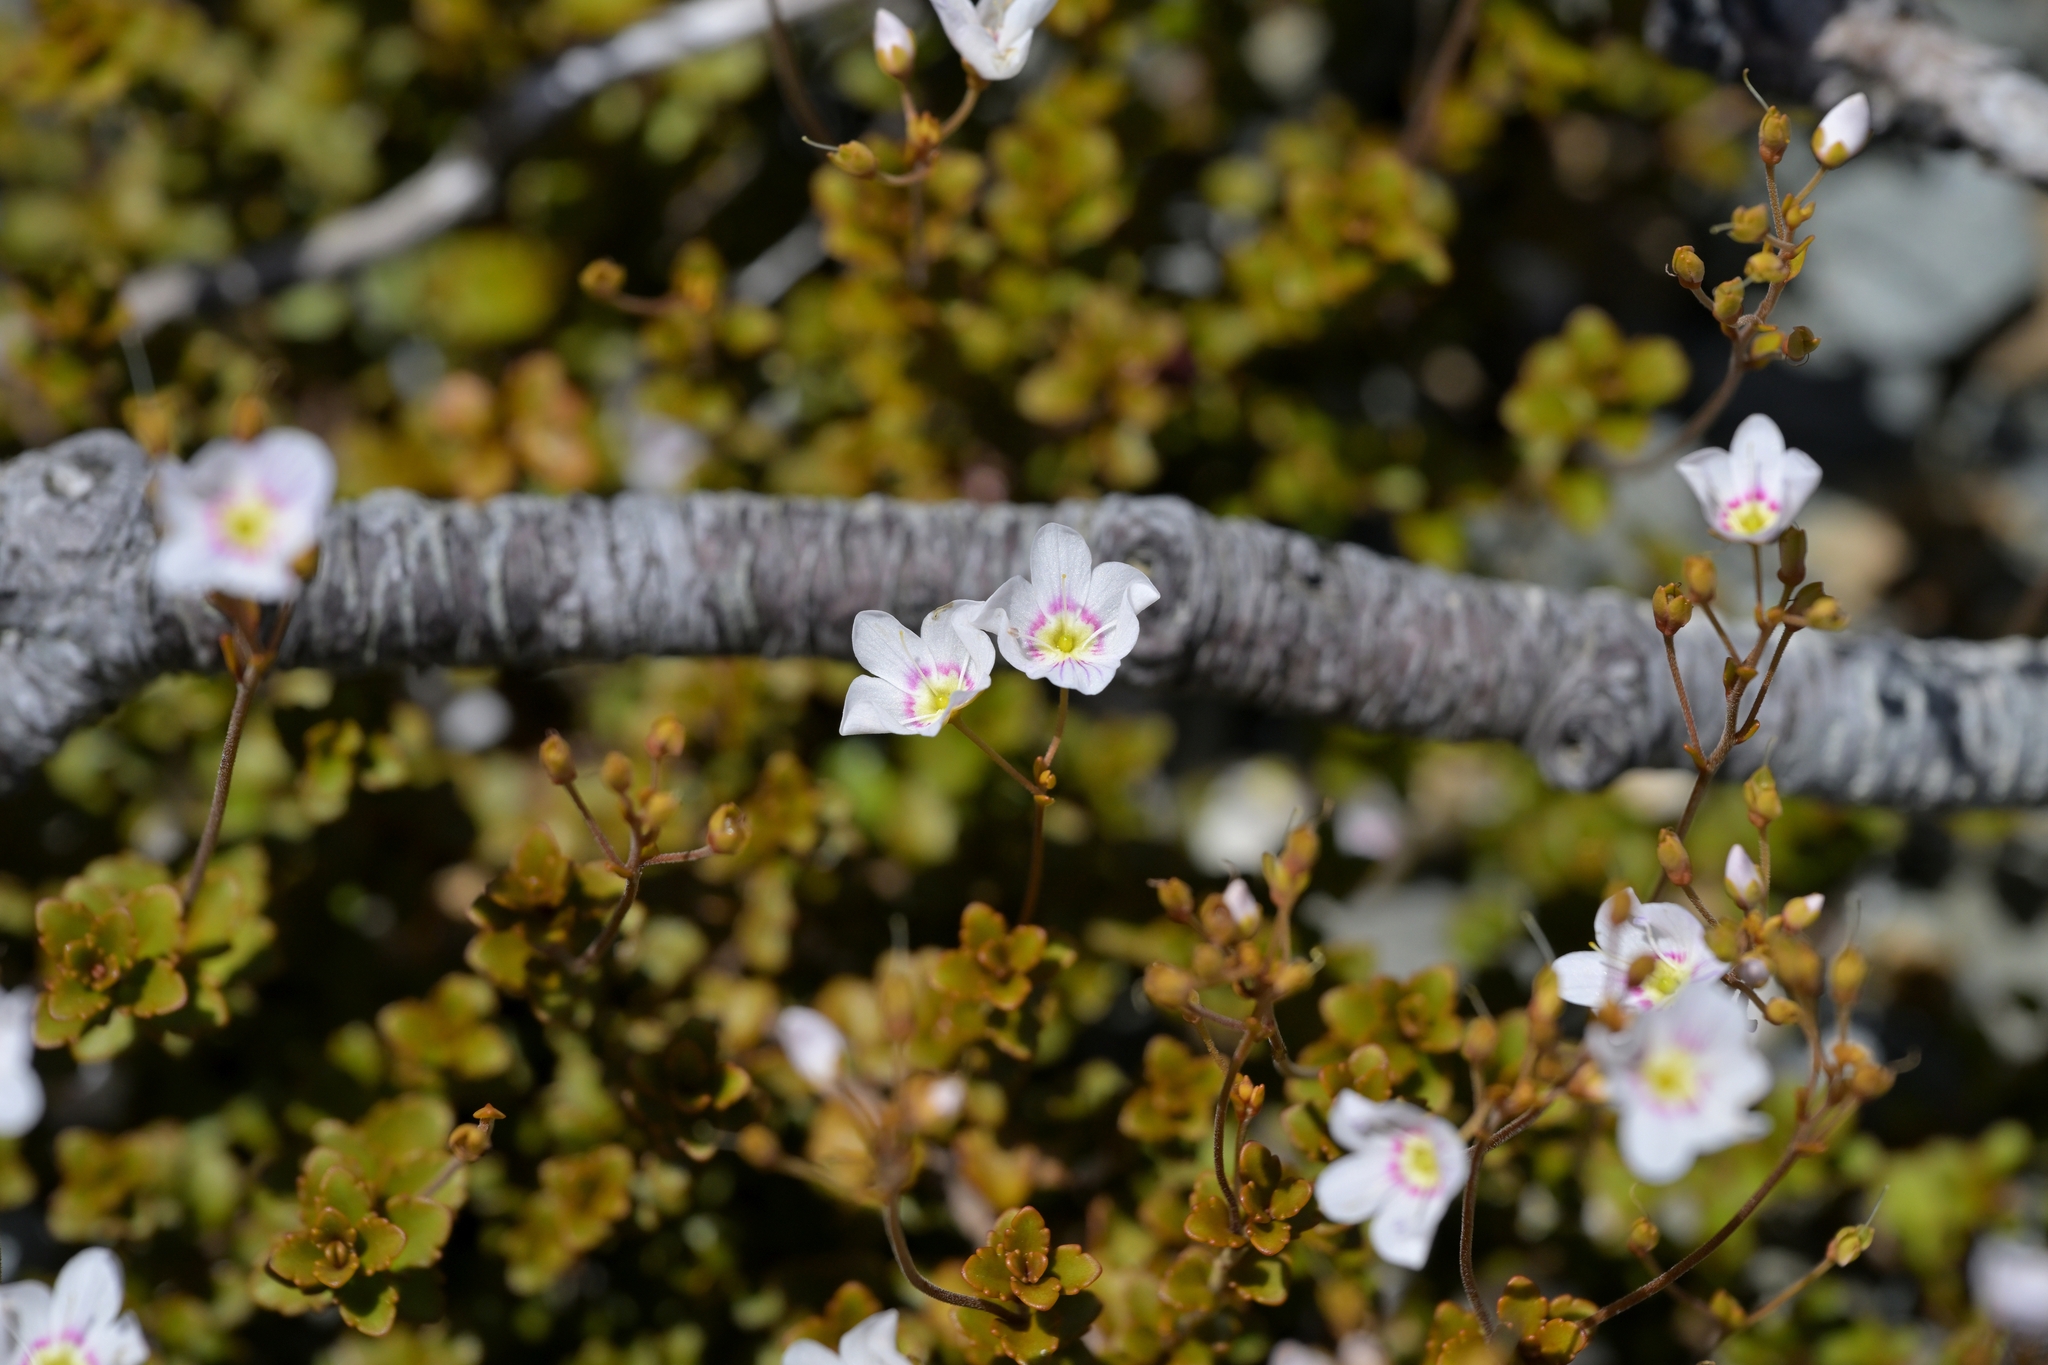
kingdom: Plantae
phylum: Tracheophyta
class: Magnoliopsida
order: Lamiales
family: Plantaginaceae
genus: Veronica
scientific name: Veronica lyallii
